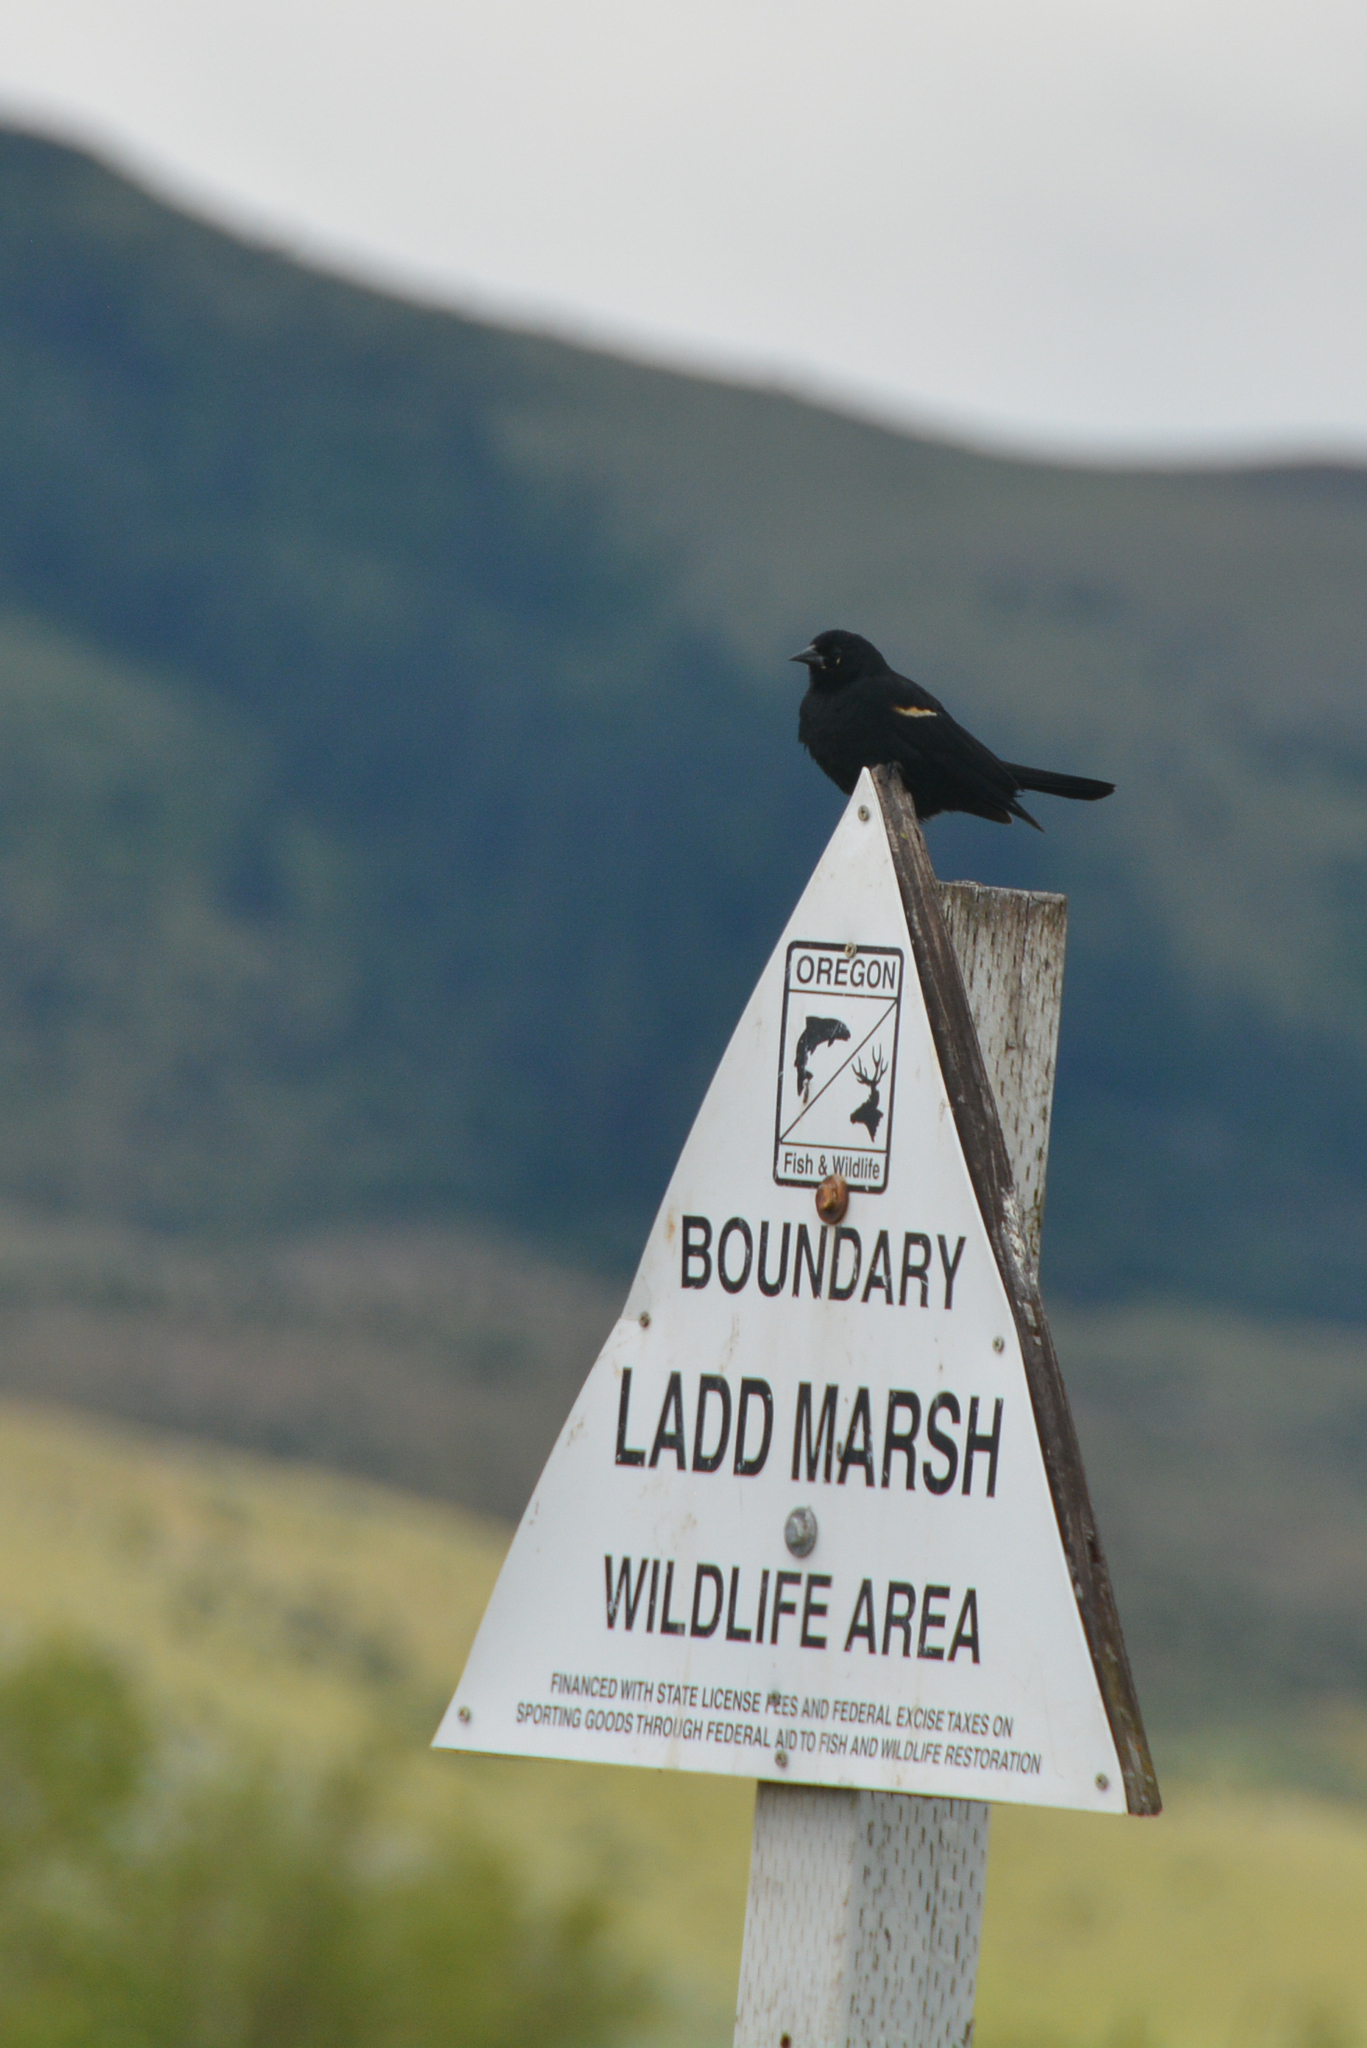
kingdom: Animalia
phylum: Chordata
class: Aves
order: Passeriformes
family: Icteridae
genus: Agelaius
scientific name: Agelaius phoeniceus
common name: Red-winged blackbird
